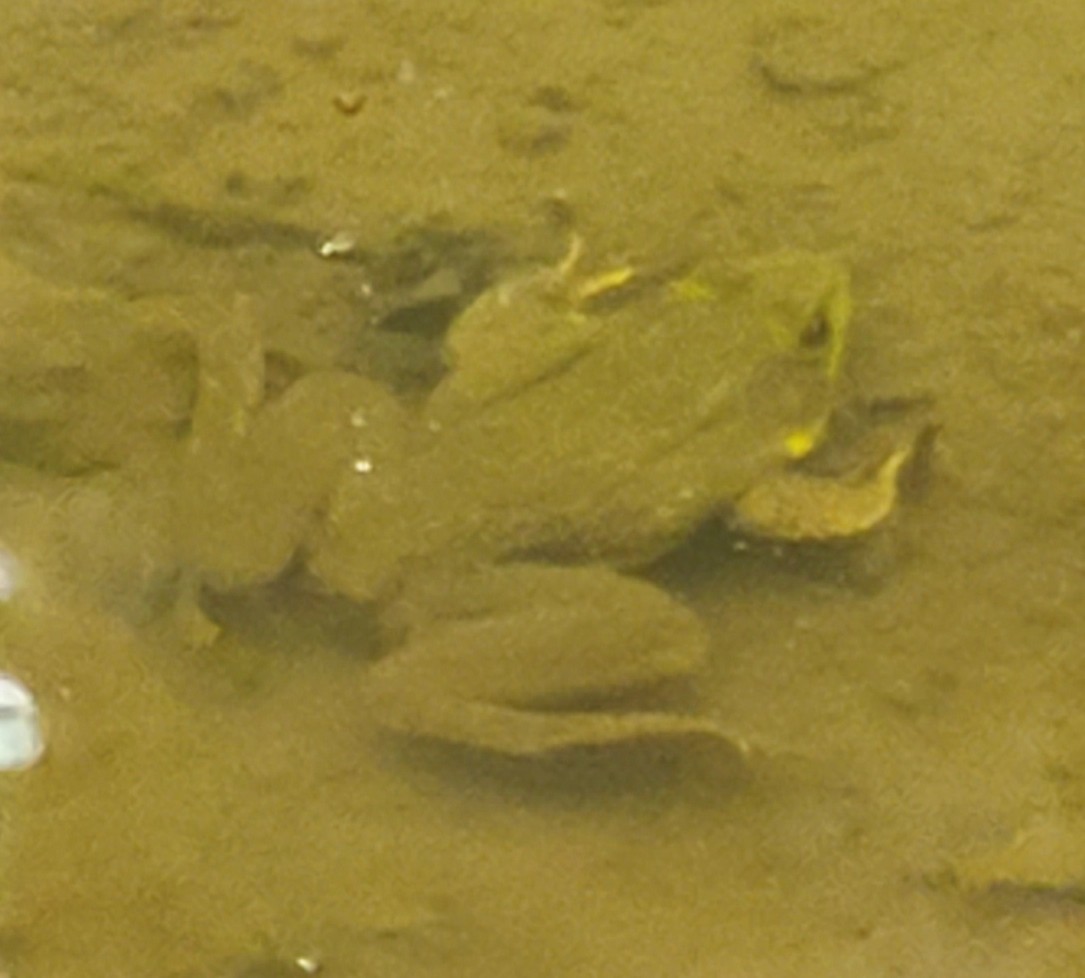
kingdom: Animalia
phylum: Chordata
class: Amphibia
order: Anura
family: Ranidae
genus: Lithobates
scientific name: Lithobates clamitans
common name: Green frog
